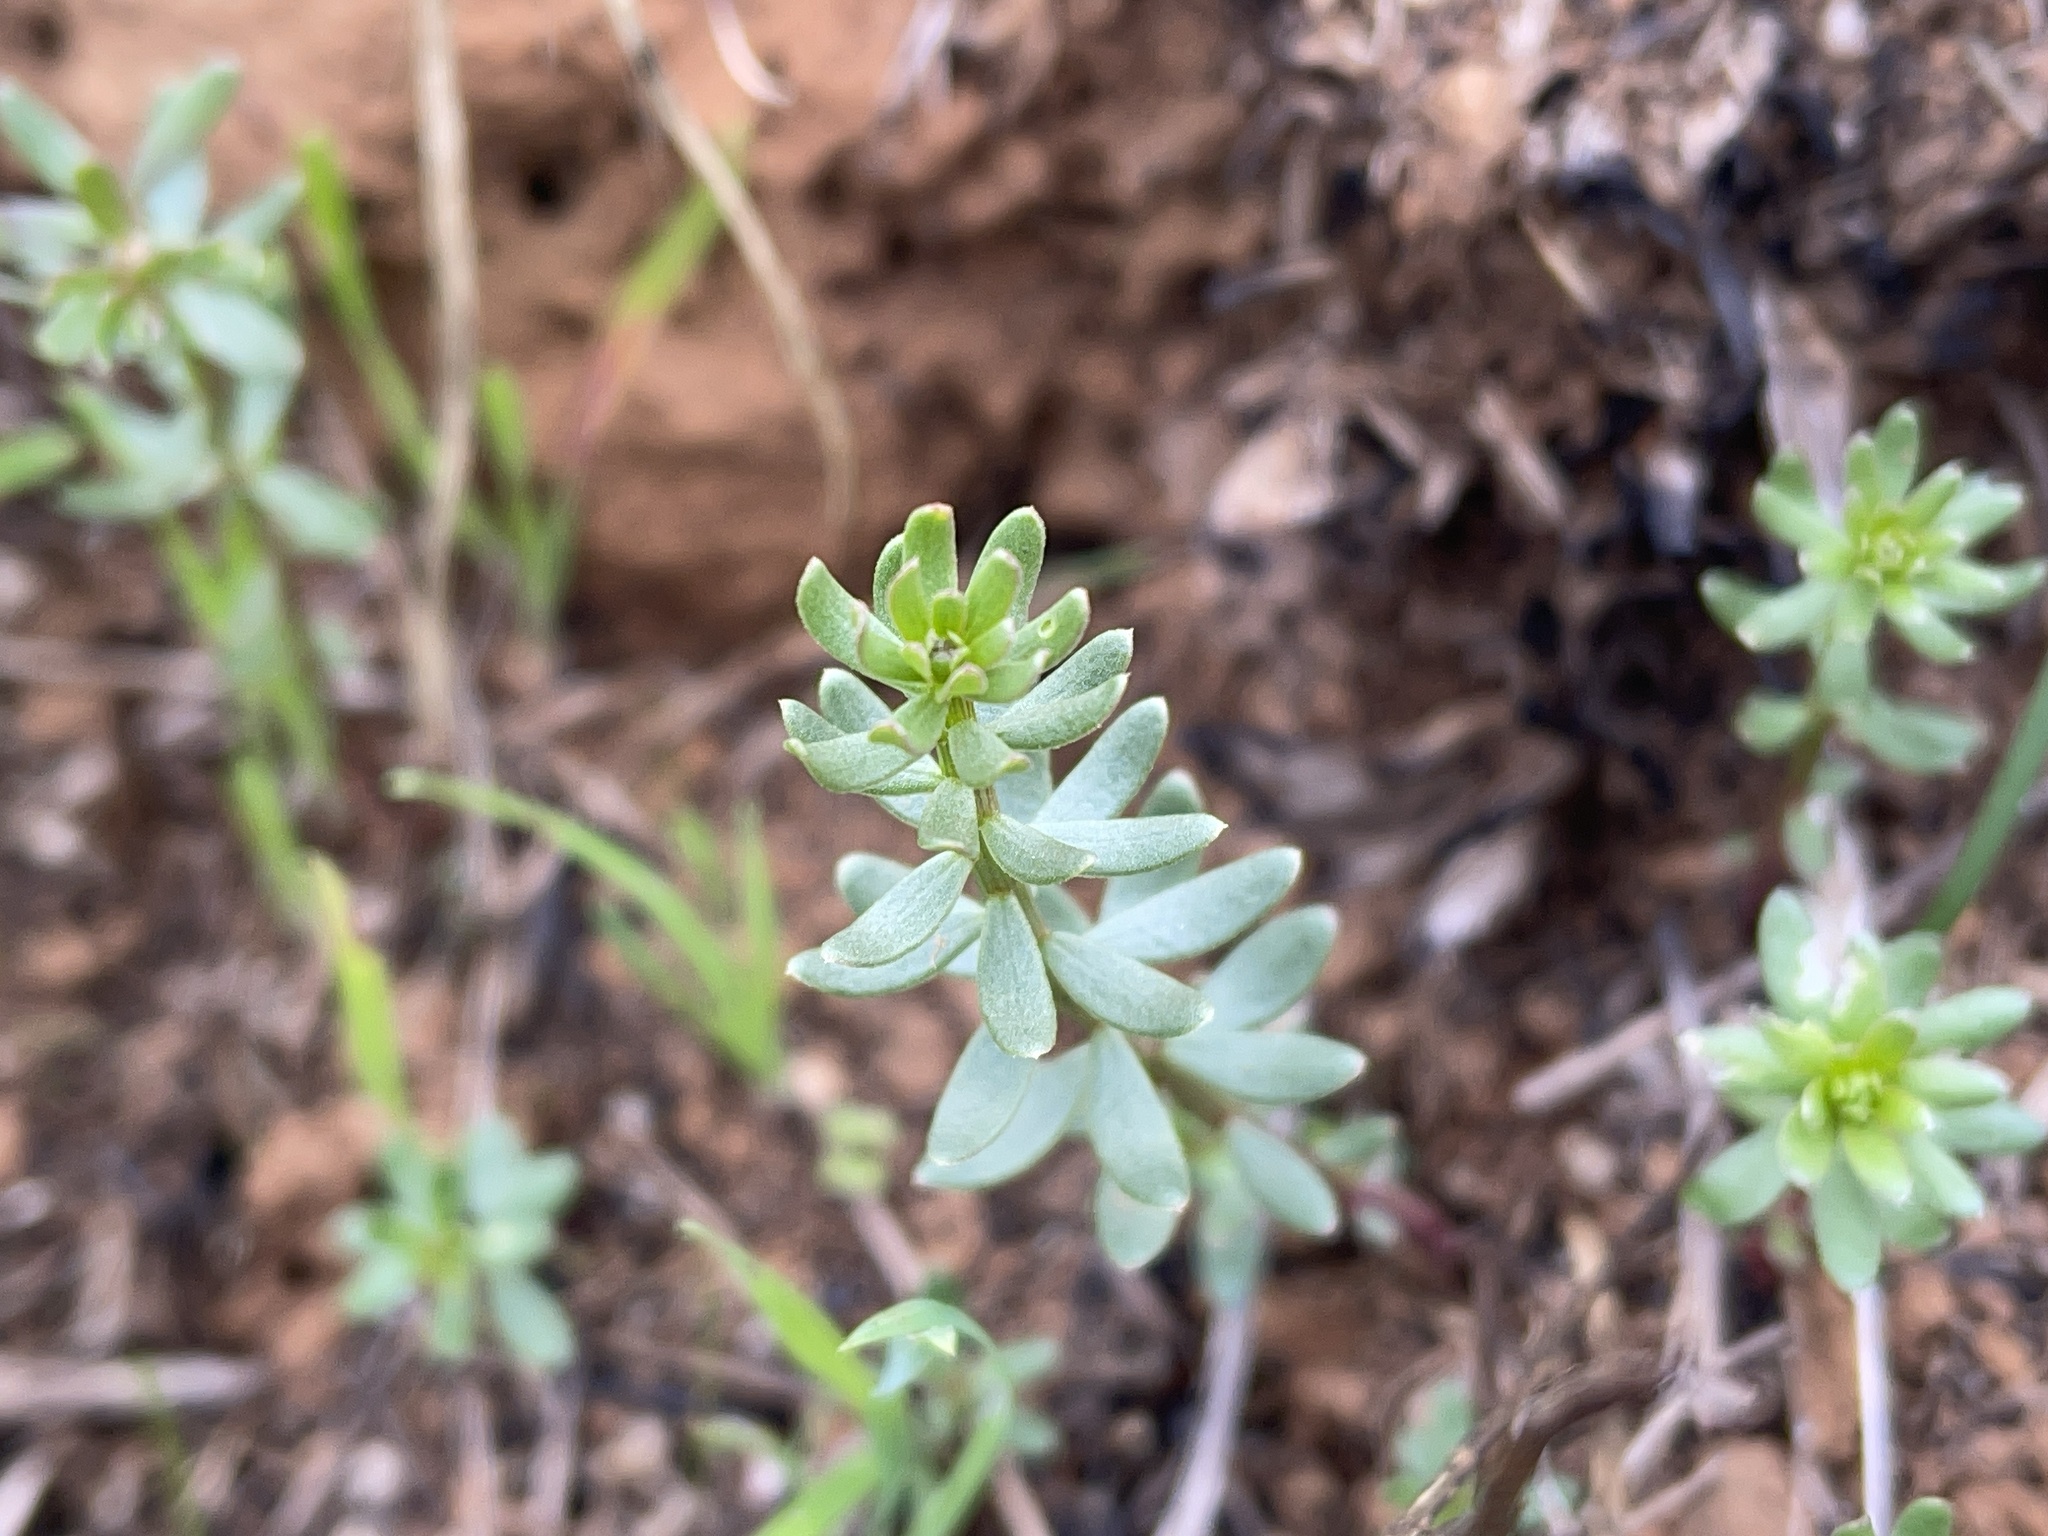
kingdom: Plantae
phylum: Tracheophyta
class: Magnoliopsida
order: Celastrales
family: Celastraceae
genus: Stackhousia
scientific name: Stackhousia subterranea
